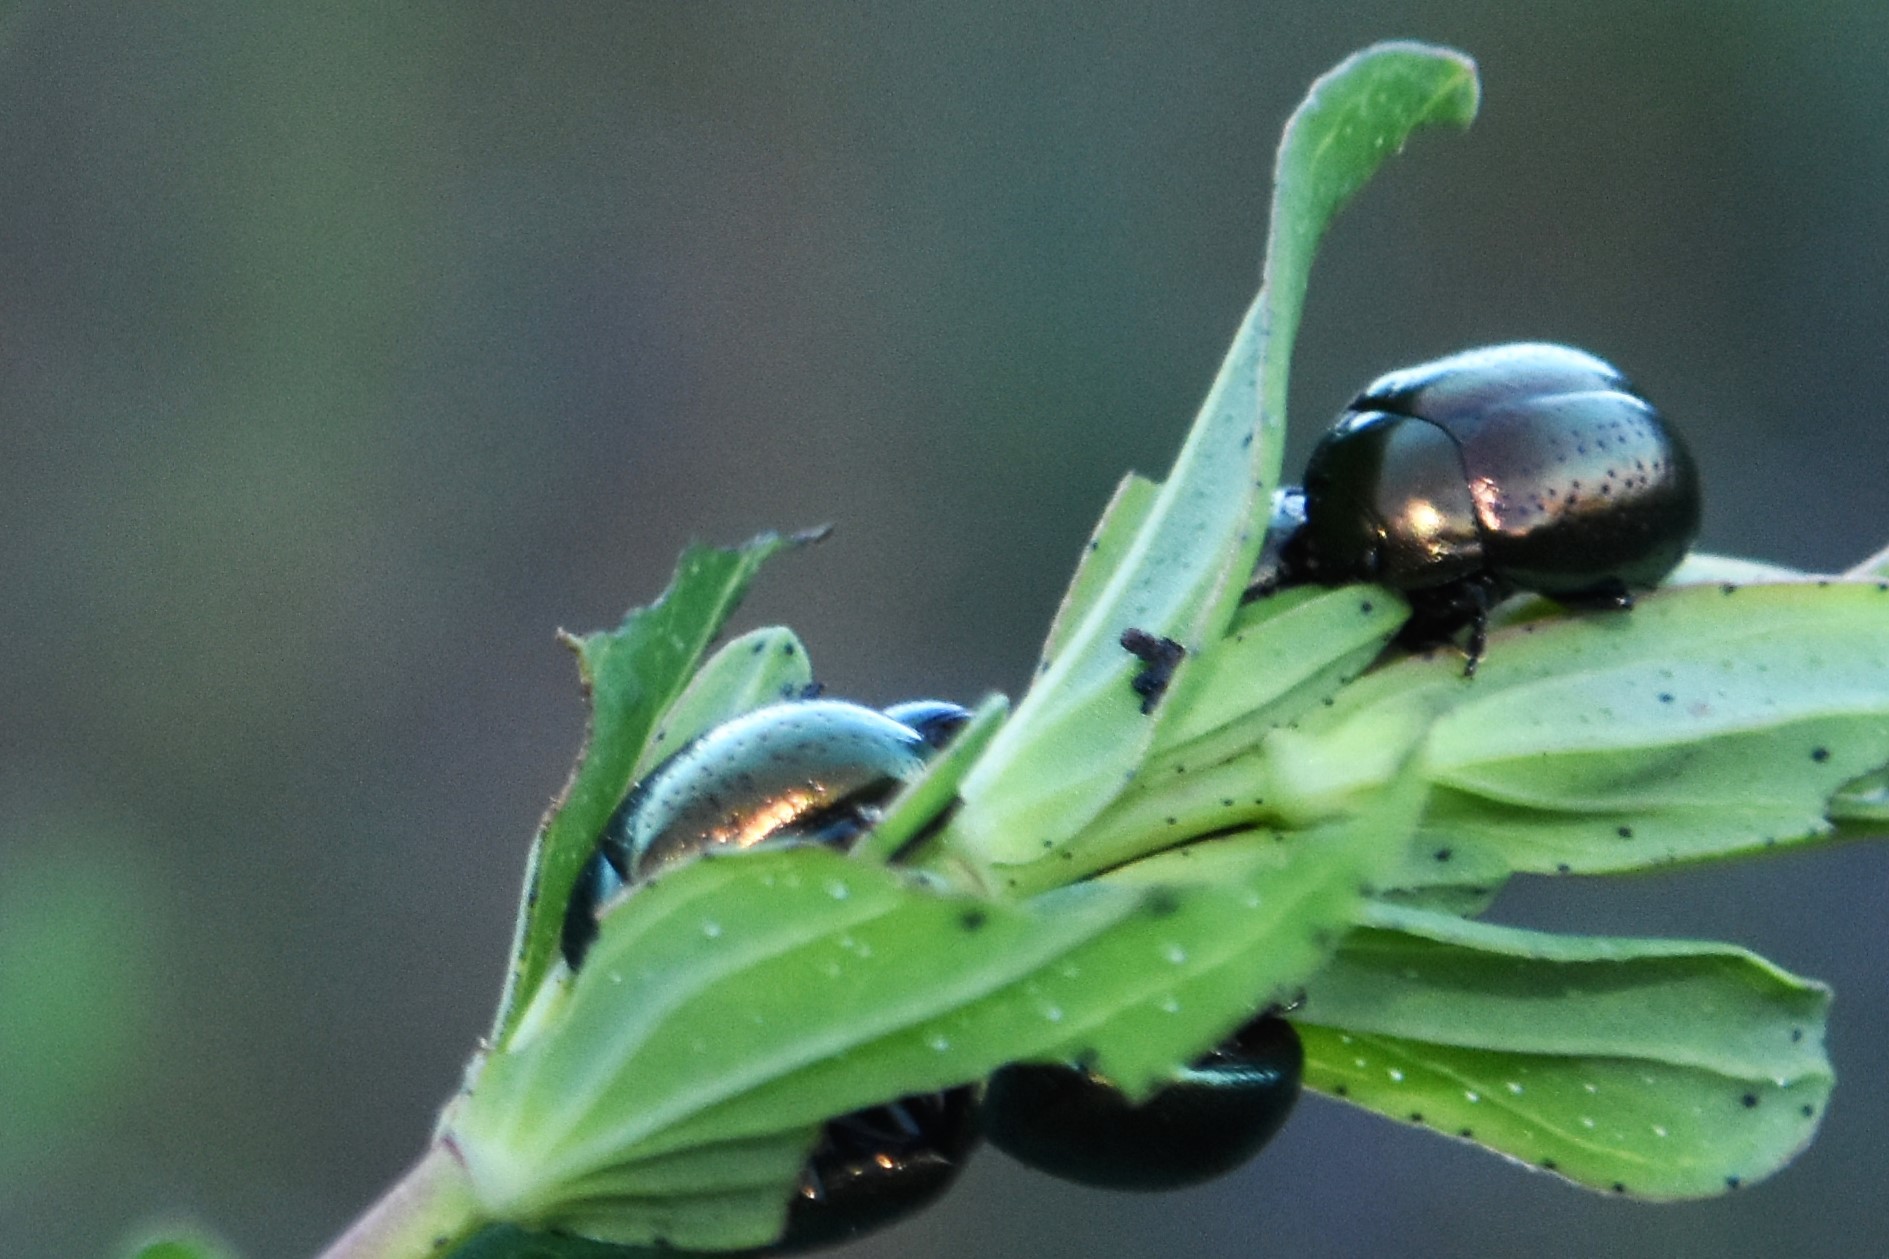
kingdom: Animalia
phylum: Arthropoda
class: Insecta
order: Coleoptera
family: Chrysomelidae
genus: Chrysolina
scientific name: Chrysolina hyperici
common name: St. johnswort beetle
